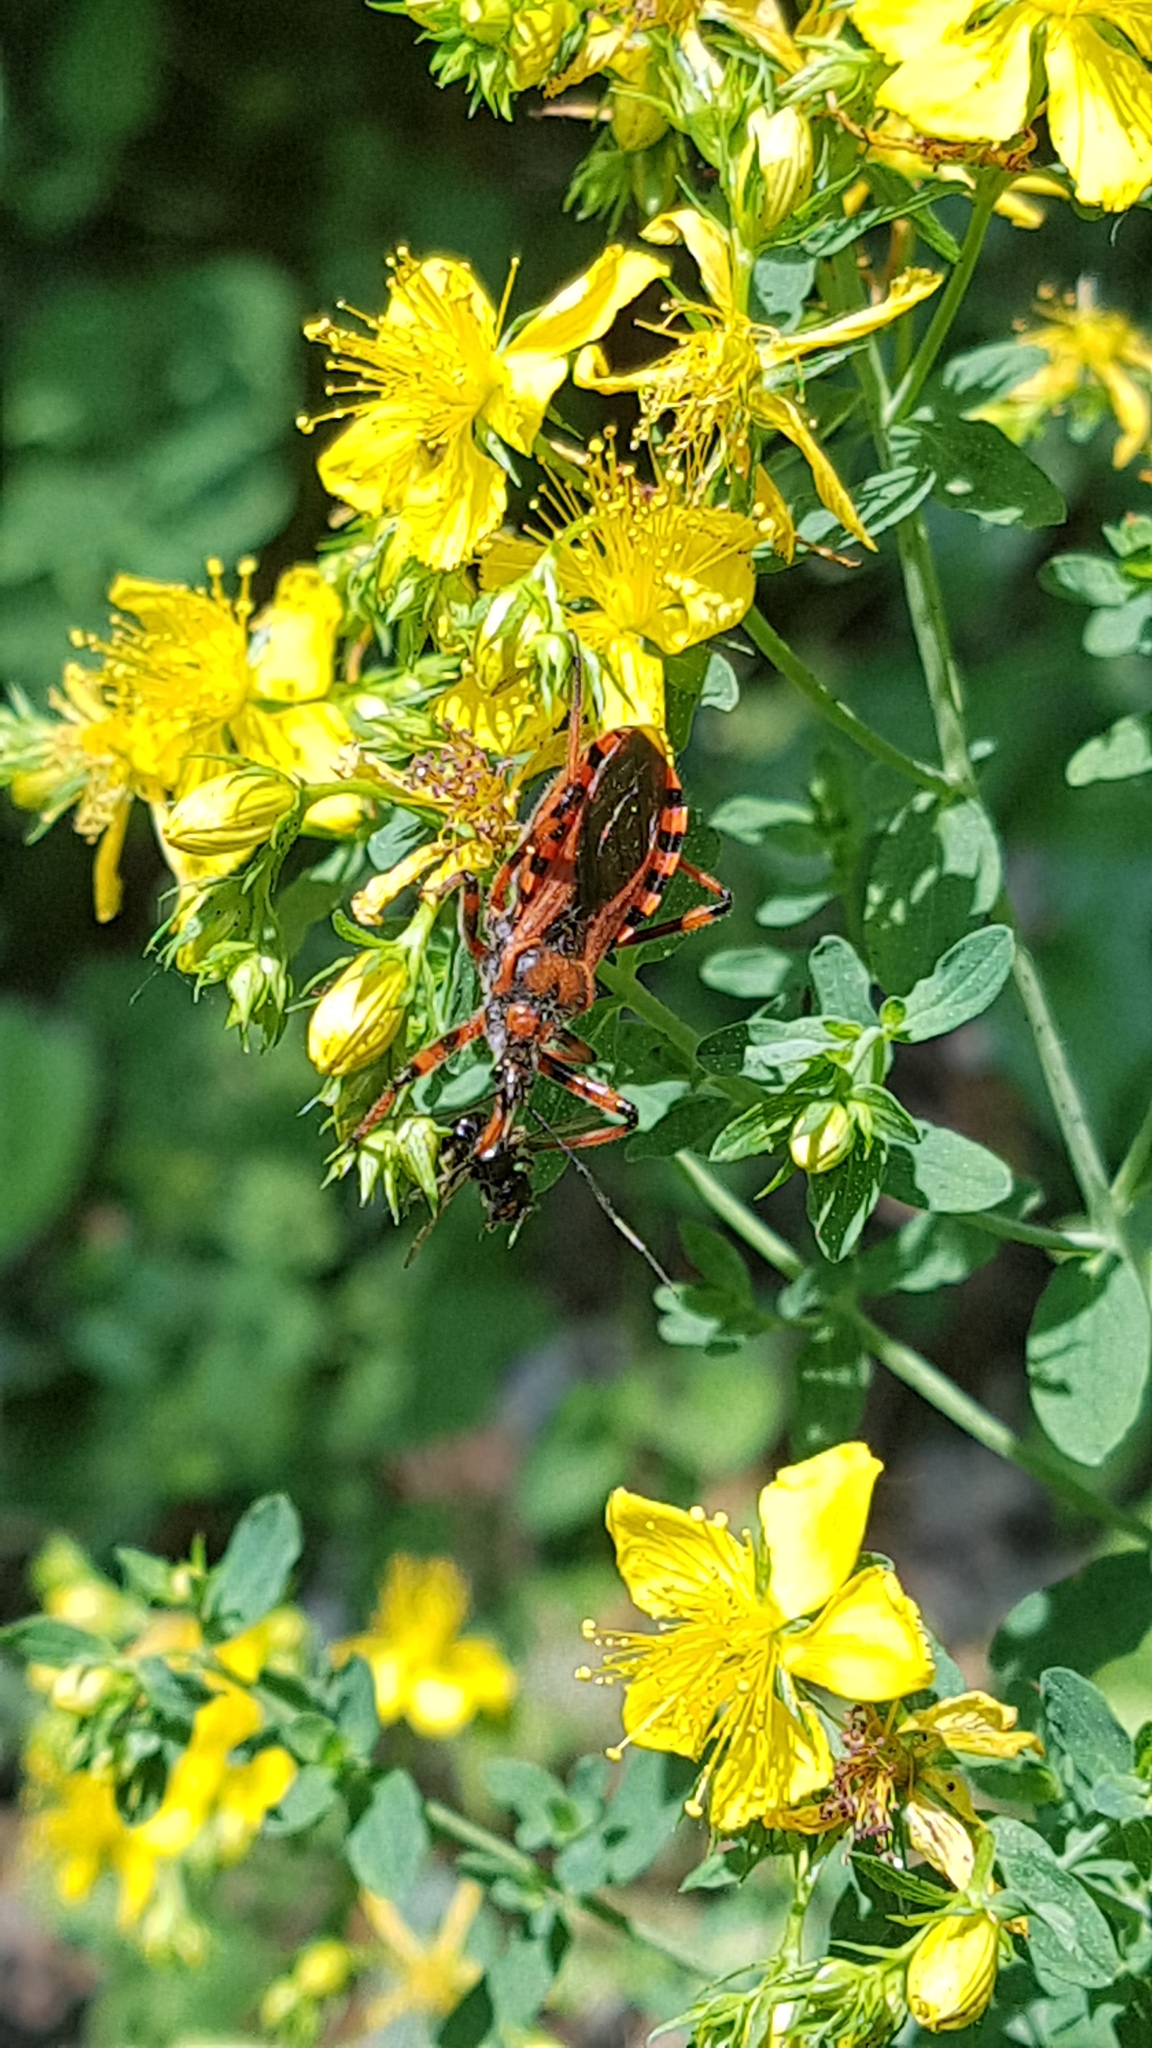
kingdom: Animalia
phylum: Arthropoda
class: Insecta
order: Hemiptera
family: Reduviidae
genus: Rhynocoris
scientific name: Rhynocoris iracundus
